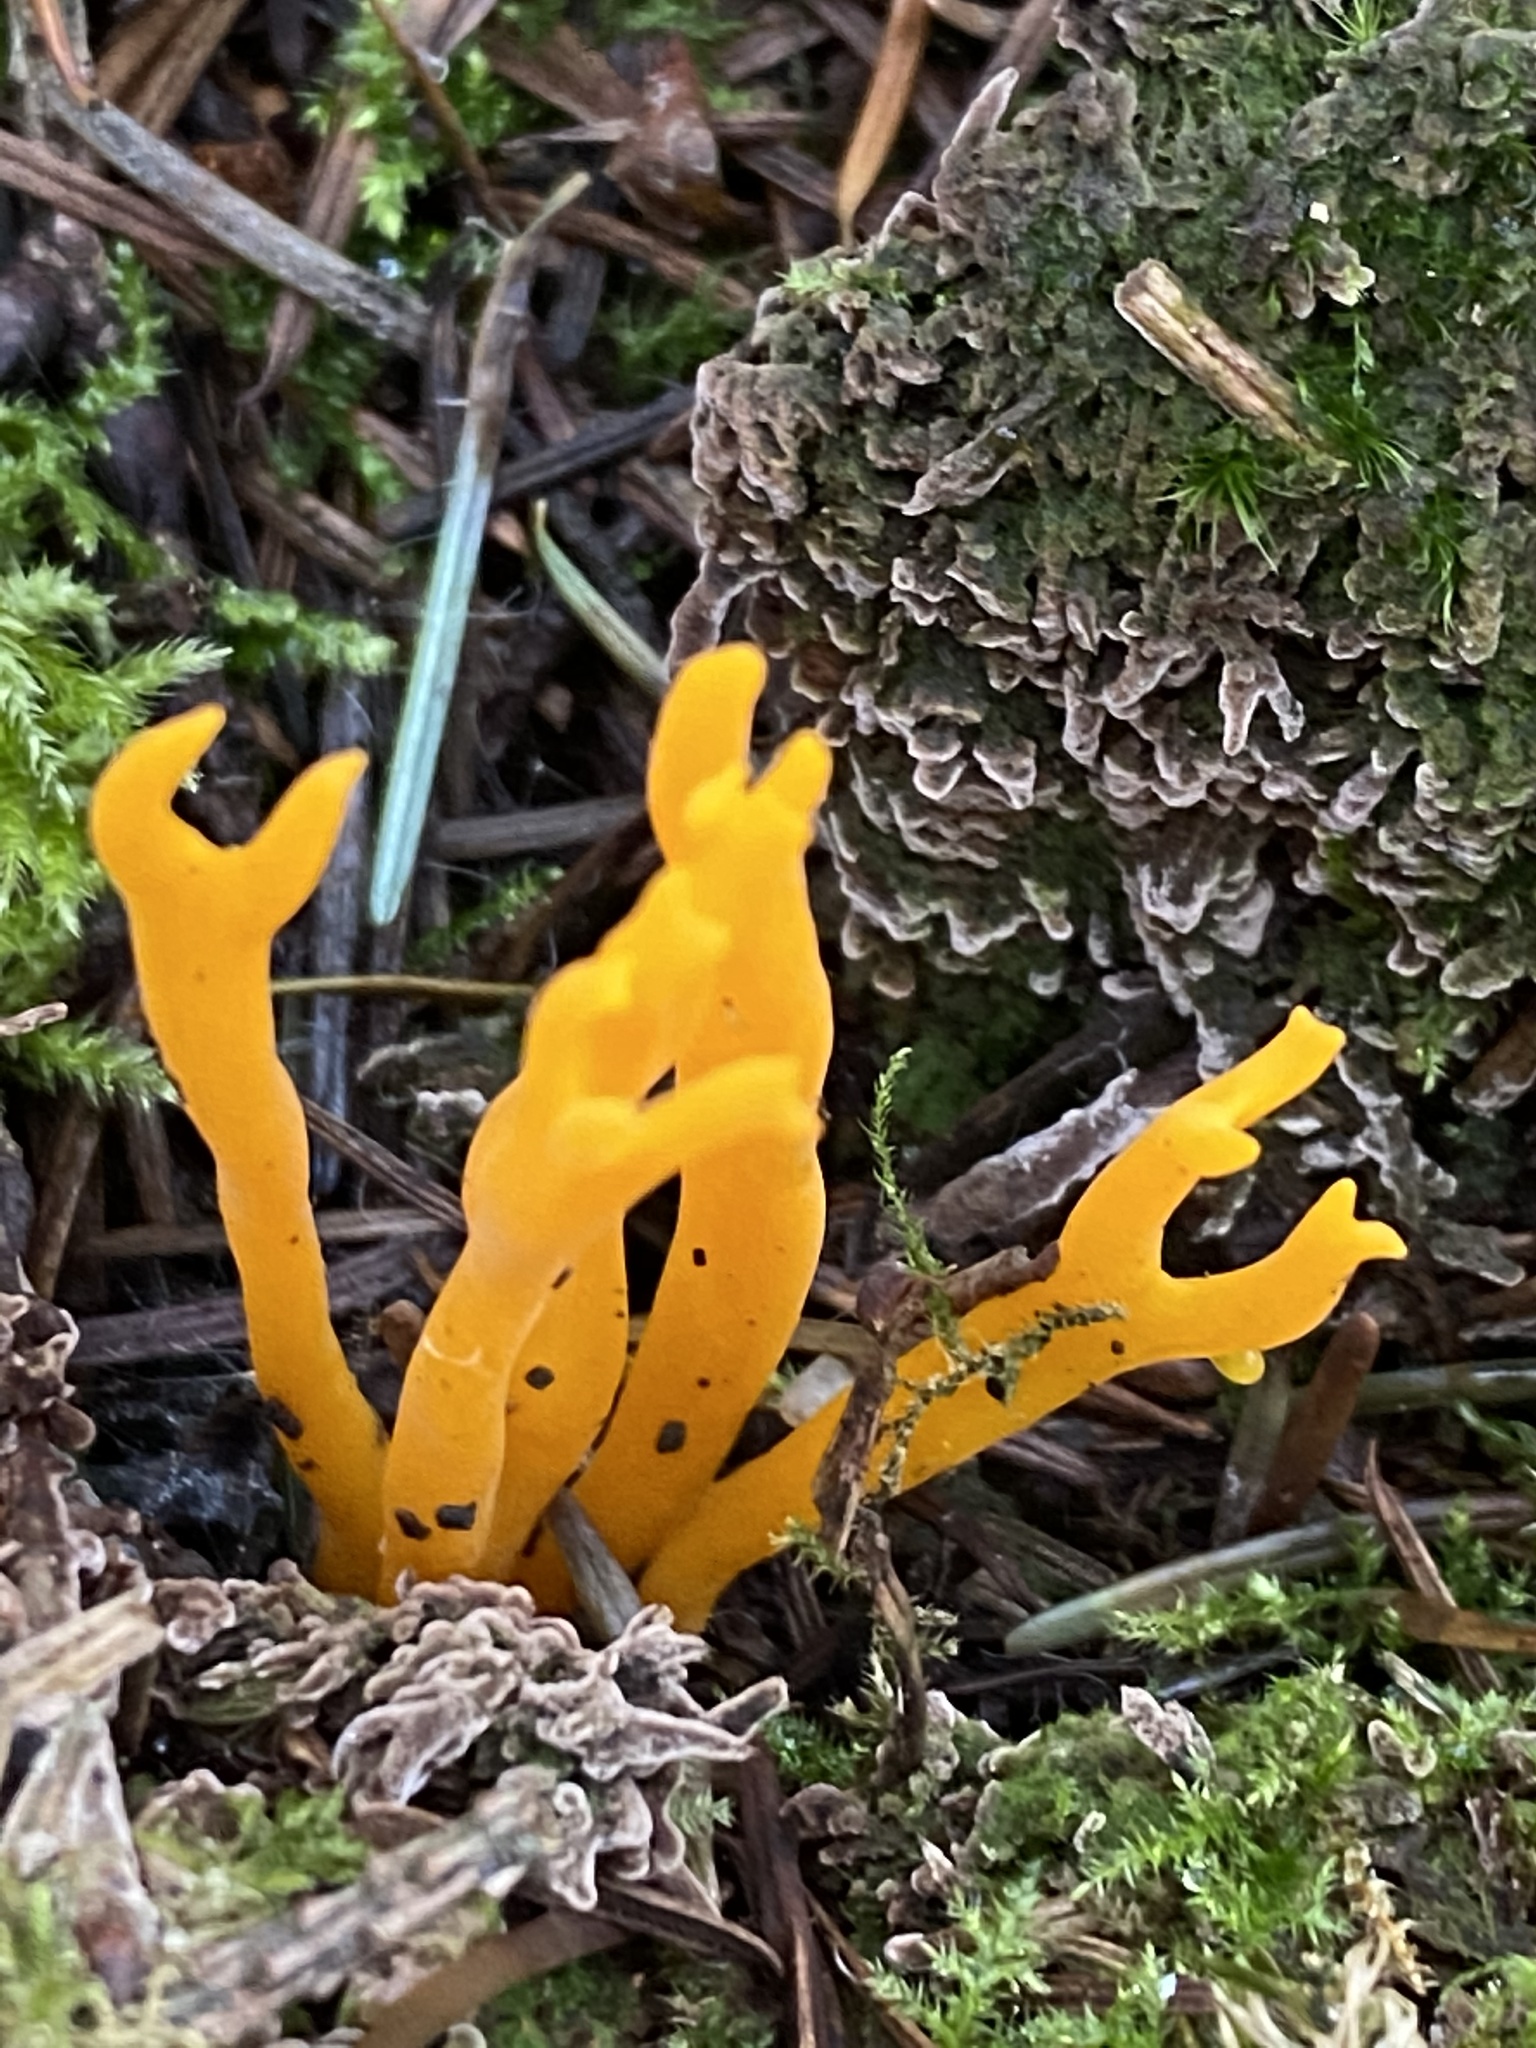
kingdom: Fungi
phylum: Basidiomycota
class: Dacrymycetes
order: Dacrymycetales
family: Dacrymycetaceae
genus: Calocera
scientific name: Calocera viscosa
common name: Yellow stagshorn
